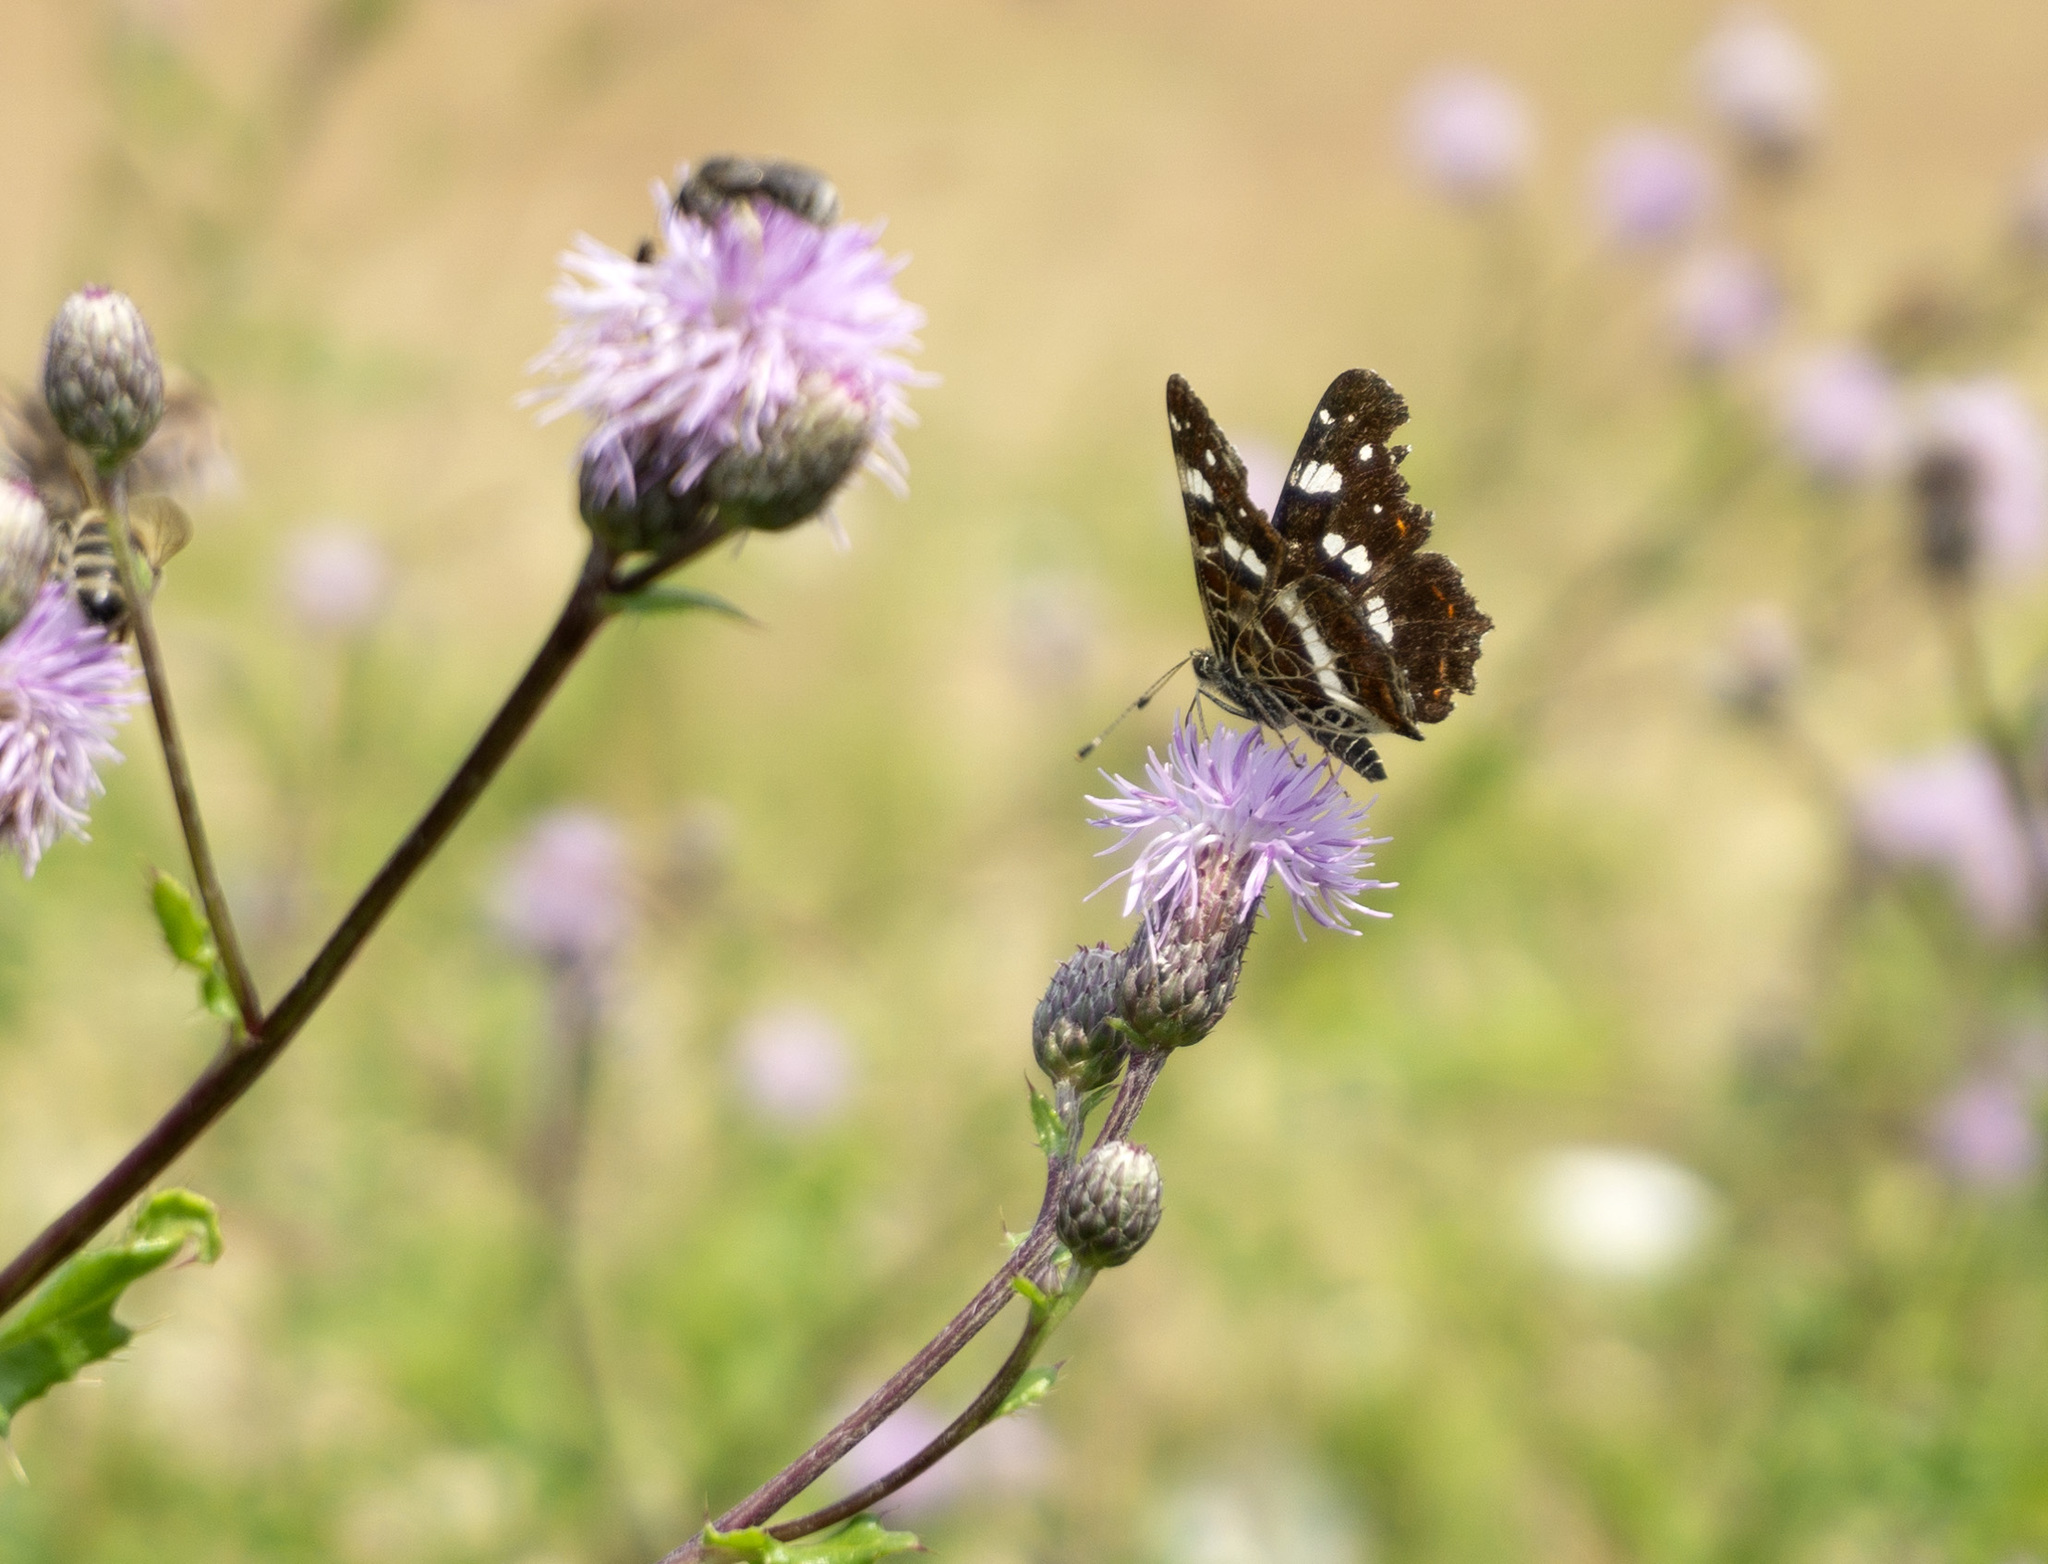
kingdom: Animalia
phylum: Arthropoda
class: Insecta
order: Lepidoptera
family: Nymphalidae
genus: Araschnia
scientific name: Araschnia levana
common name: Map butterfly
